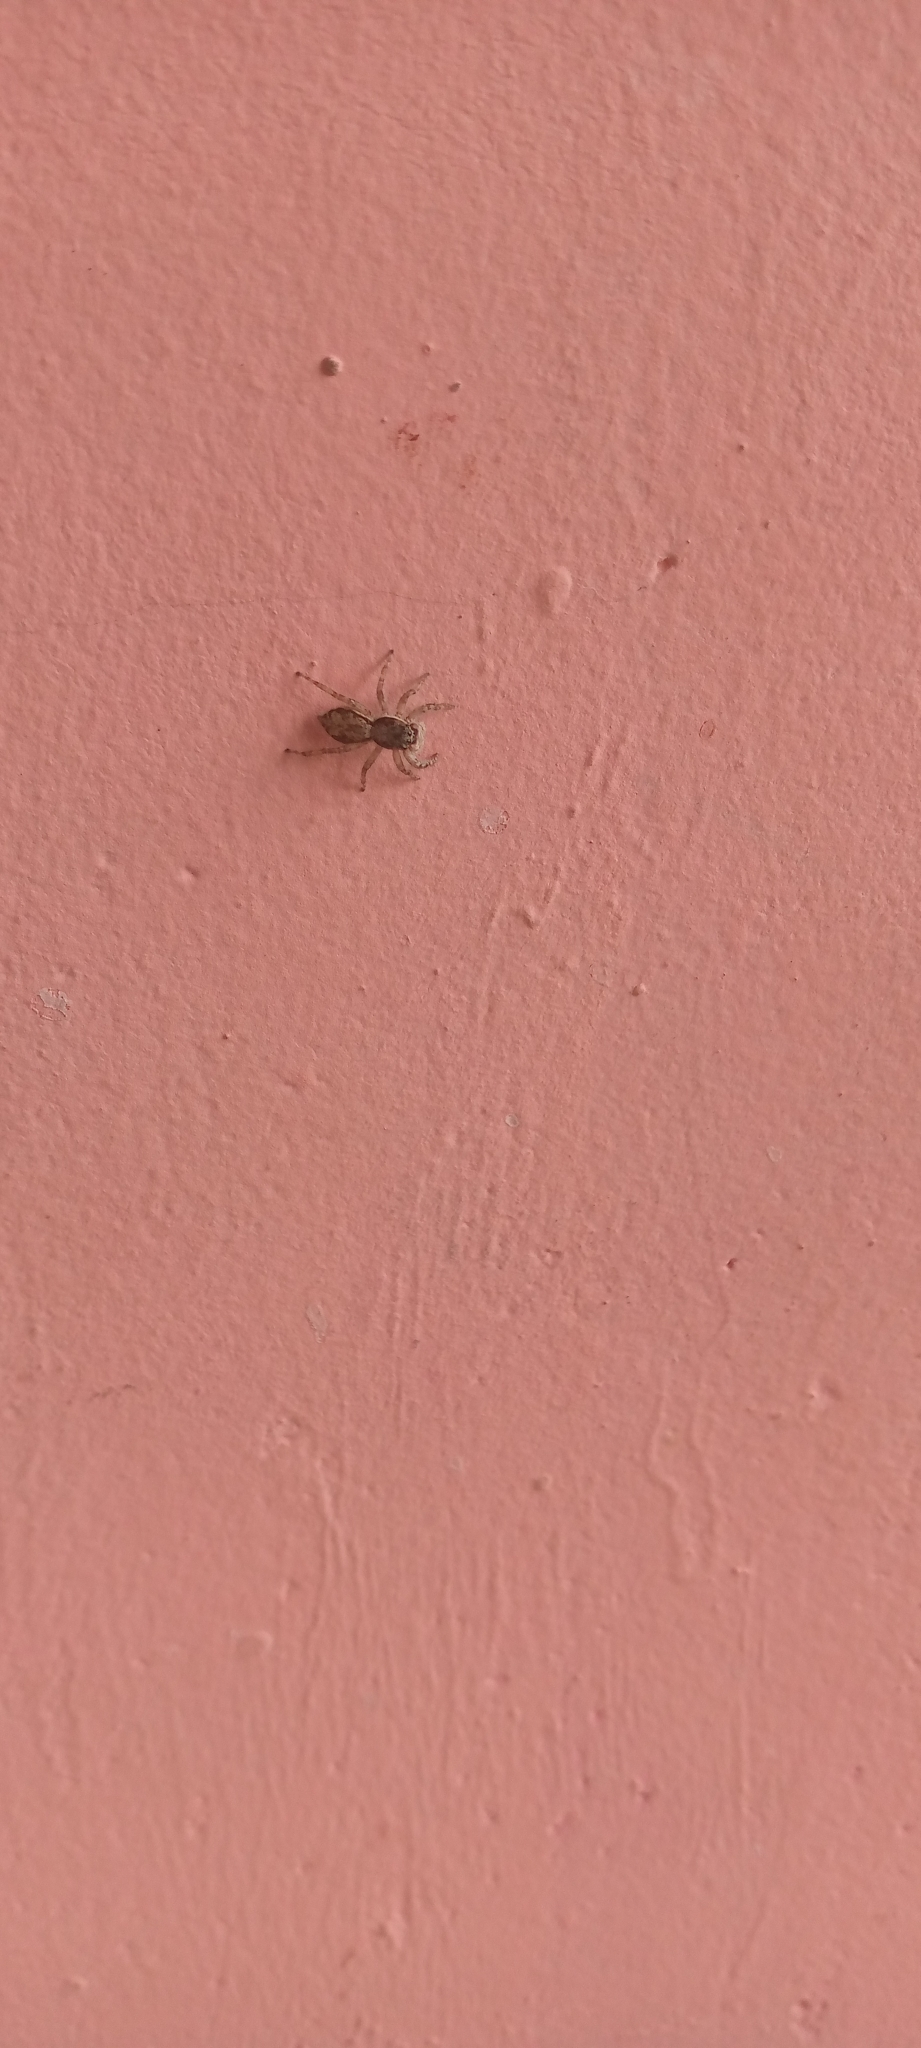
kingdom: Animalia
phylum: Arthropoda
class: Arachnida
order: Araneae
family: Salticidae
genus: Menemerus
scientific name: Menemerus bivittatus
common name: Gray wall jumper
